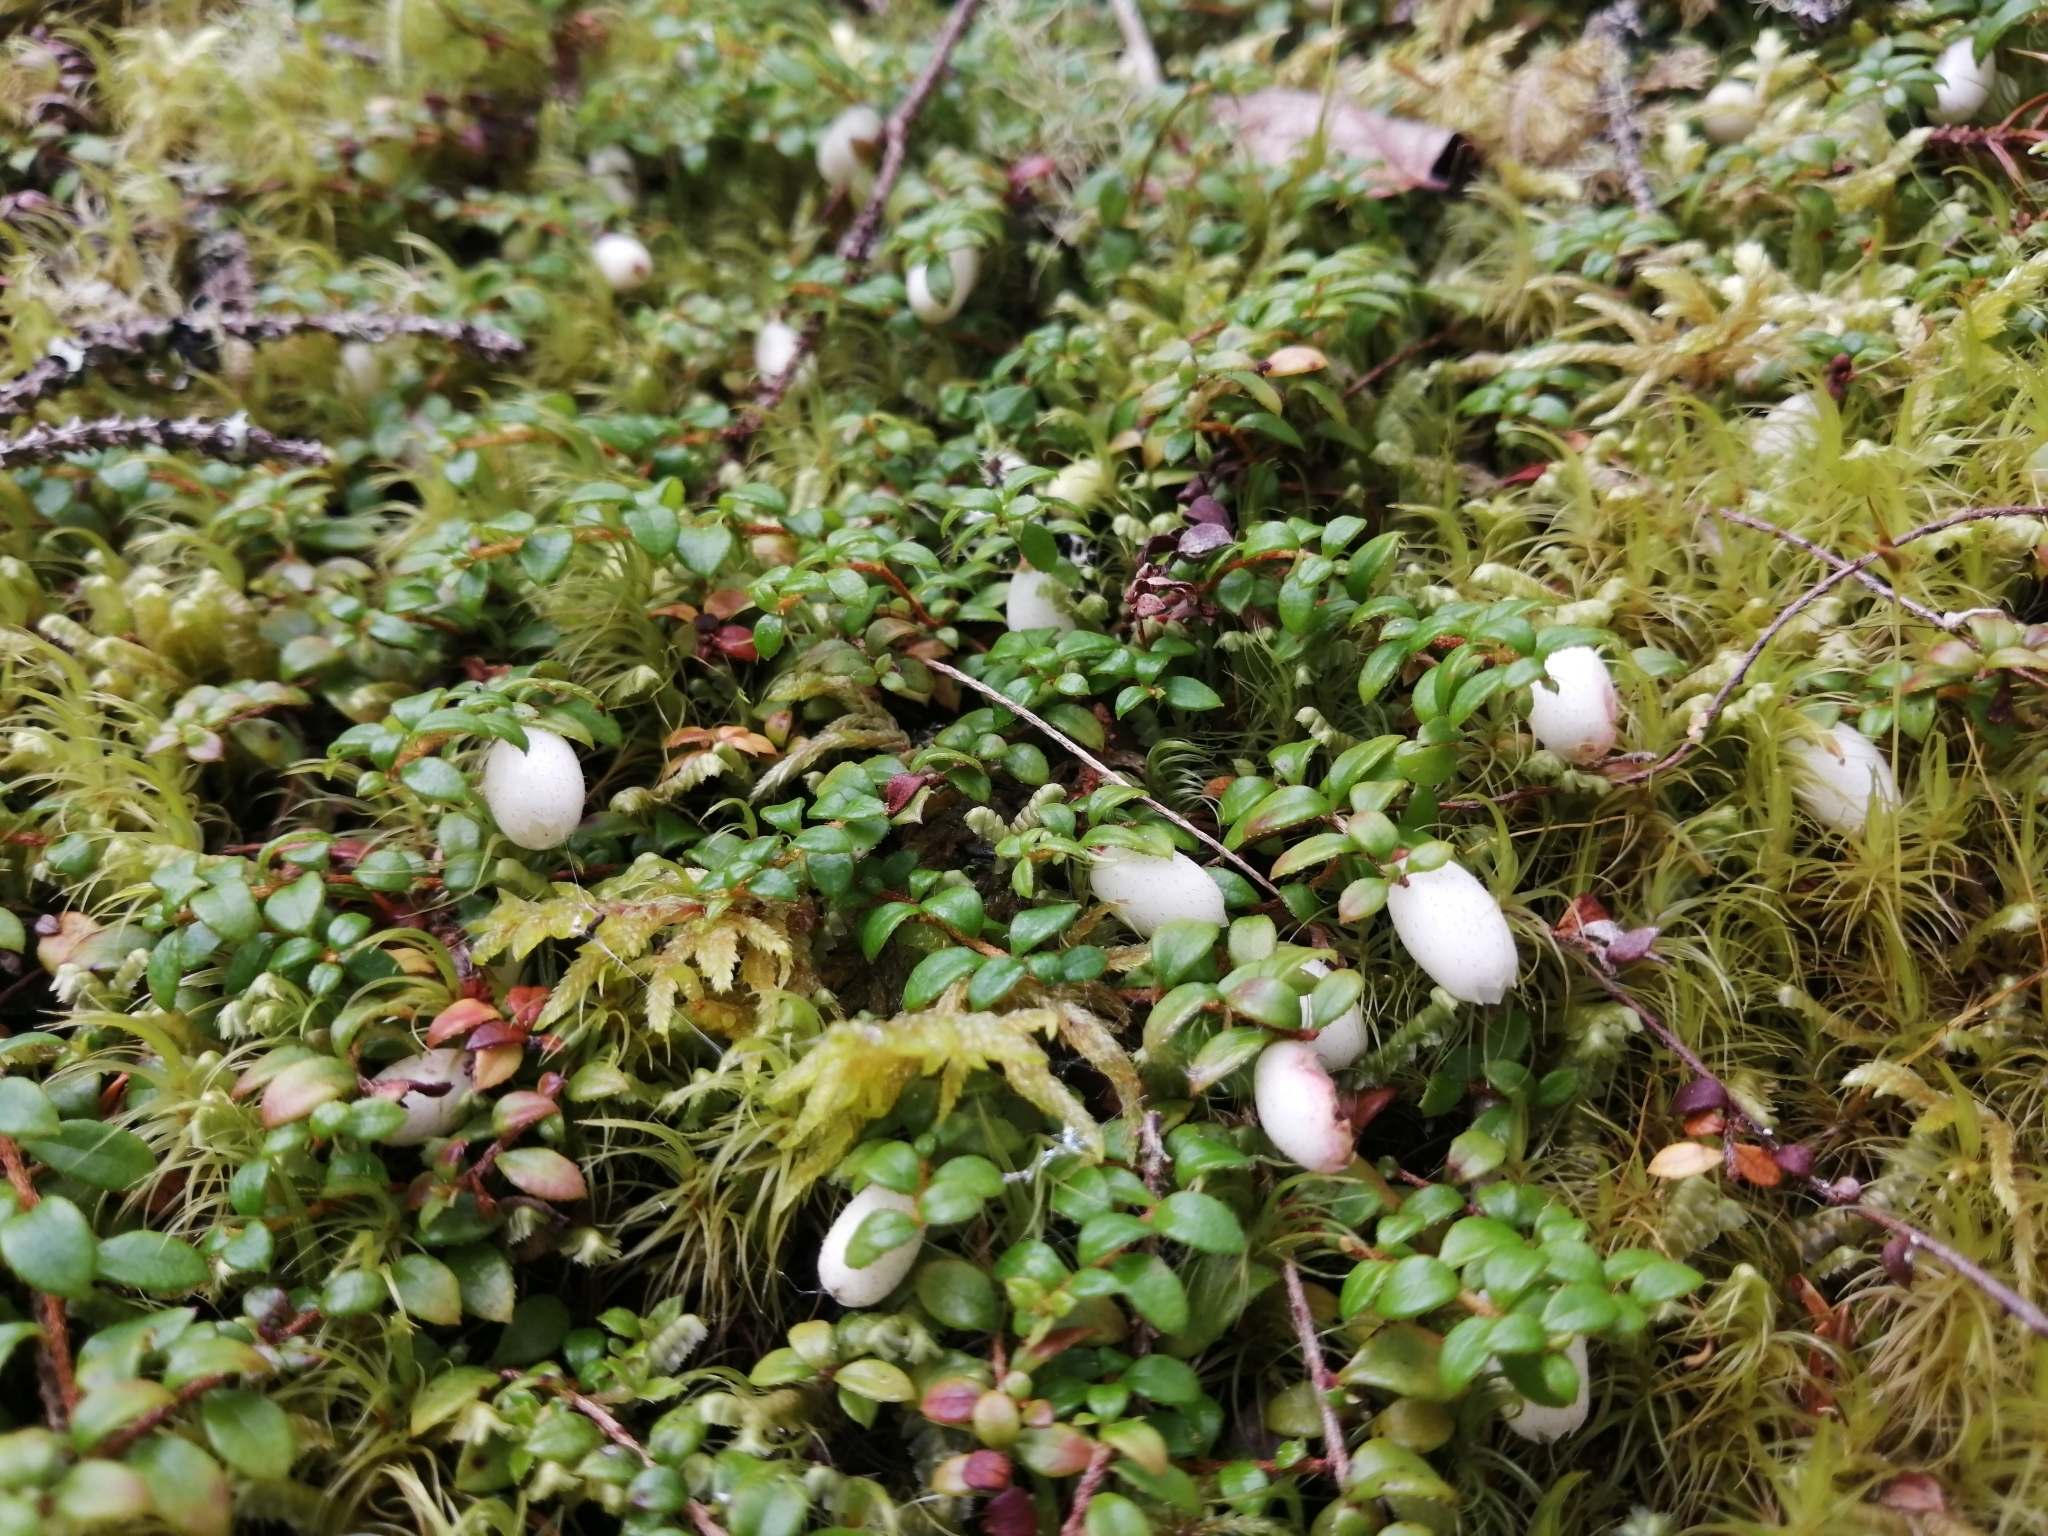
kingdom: Plantae
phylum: Tracheophyta
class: Magnoliopsida
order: Ericales
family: Ericaceae
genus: Gaultheria
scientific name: Gaultheria hispidula
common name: Cancer wintergreen
